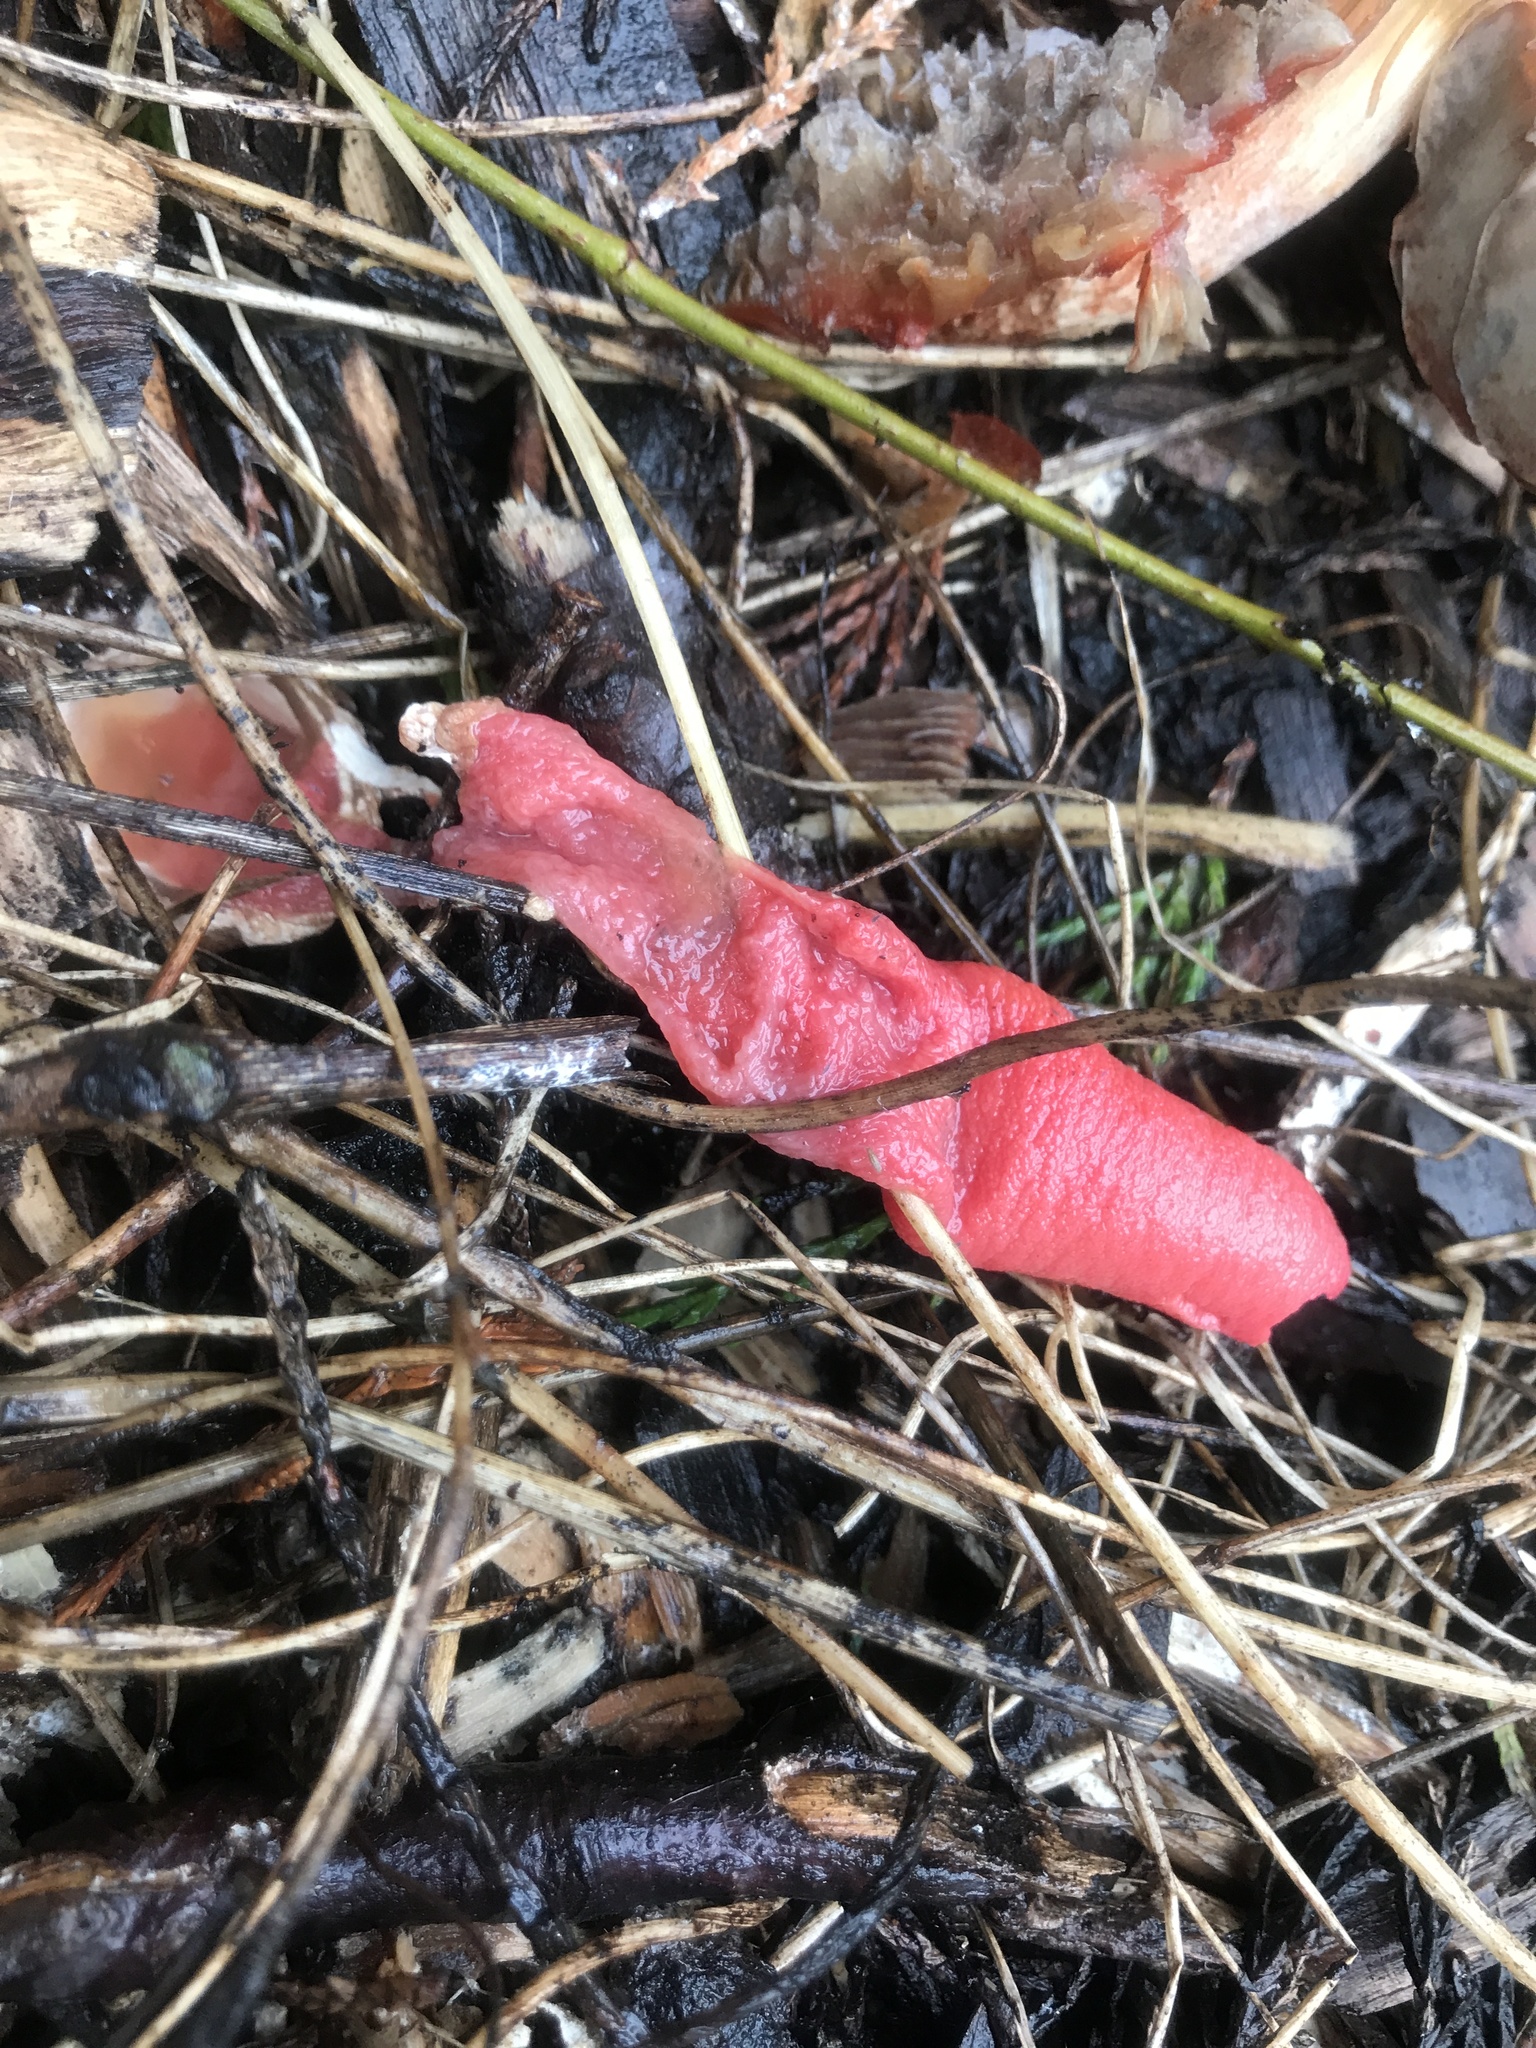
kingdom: Fungi
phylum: Basidiomycota
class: Agaricomycetes
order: Phallales
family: Phallaceae
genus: Mutinus
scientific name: Mutinus elegans
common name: Devil's dipstick
